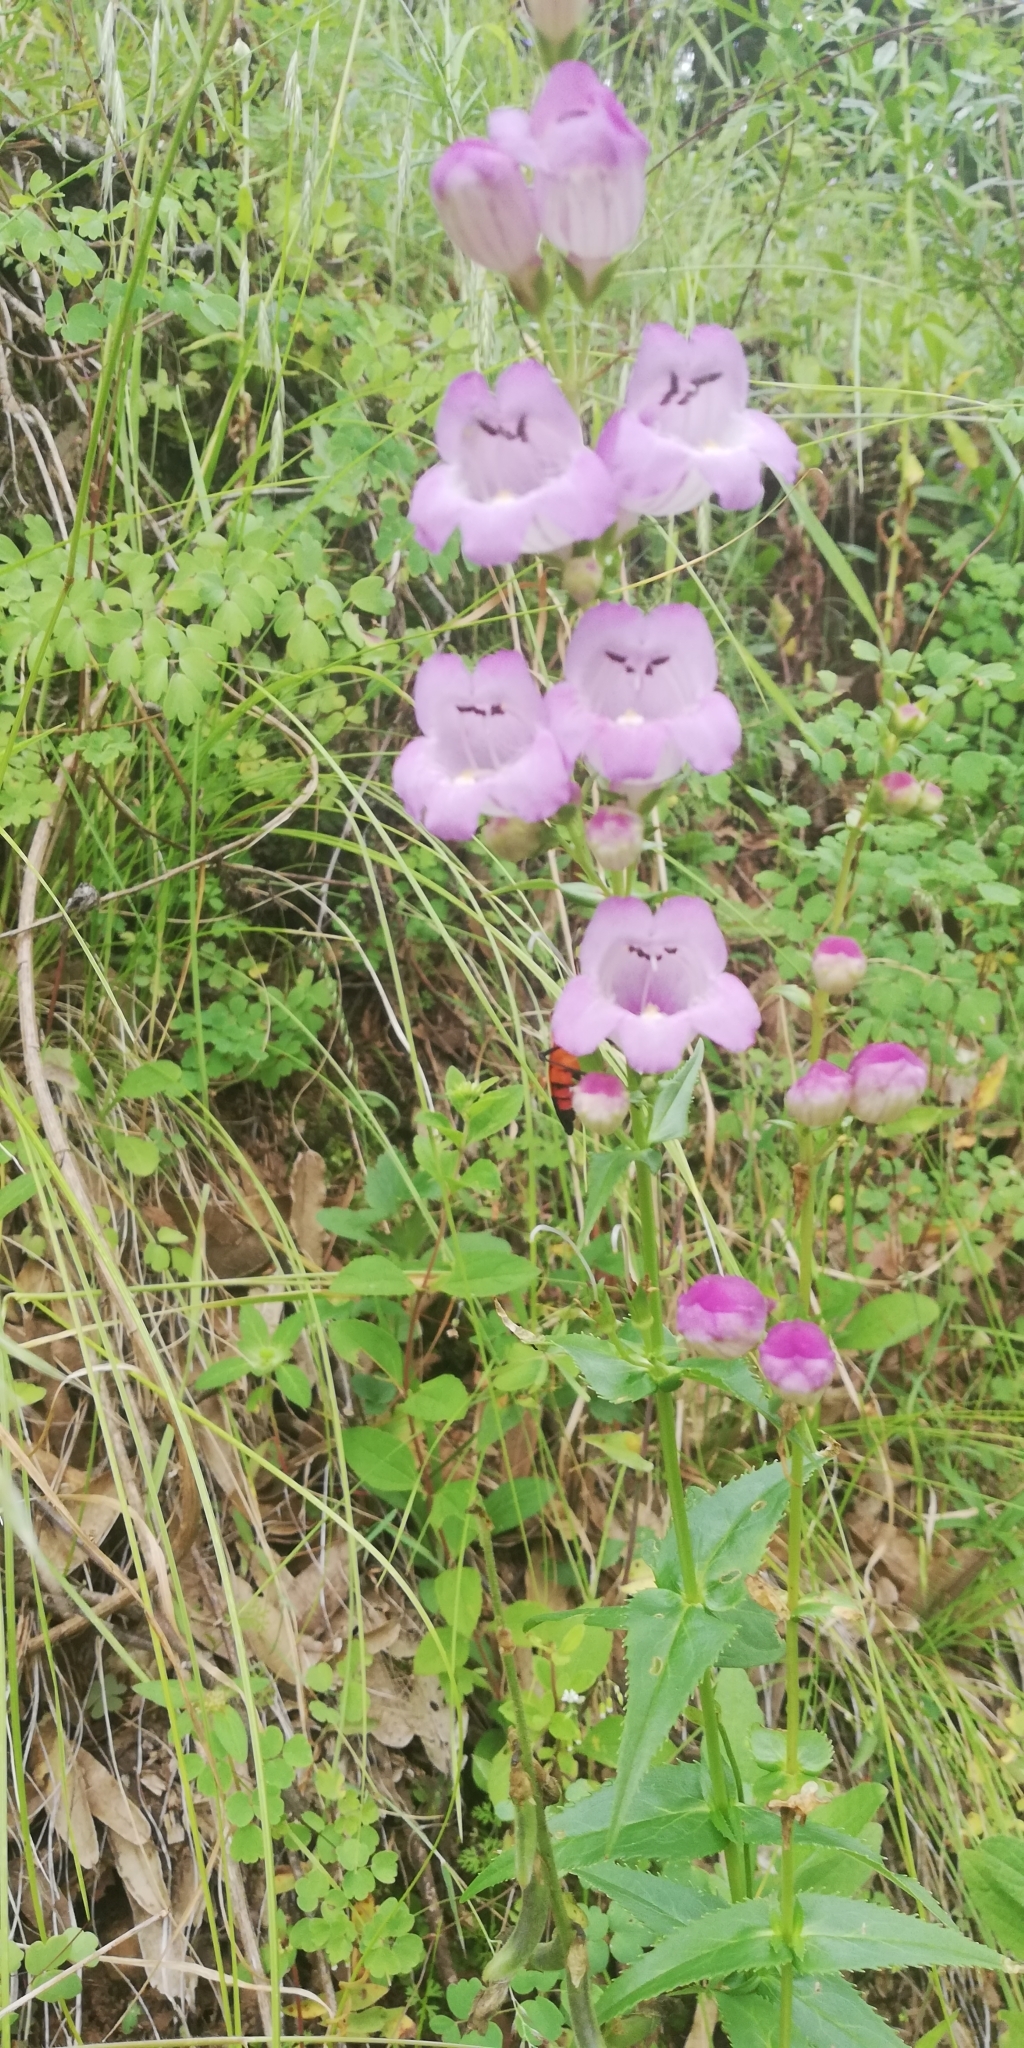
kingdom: Plantae
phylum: Tracheophyta
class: Magnoliopsida
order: Lamiales
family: Plantaginaceae
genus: Penstemon
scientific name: Penstemon campanulatus
